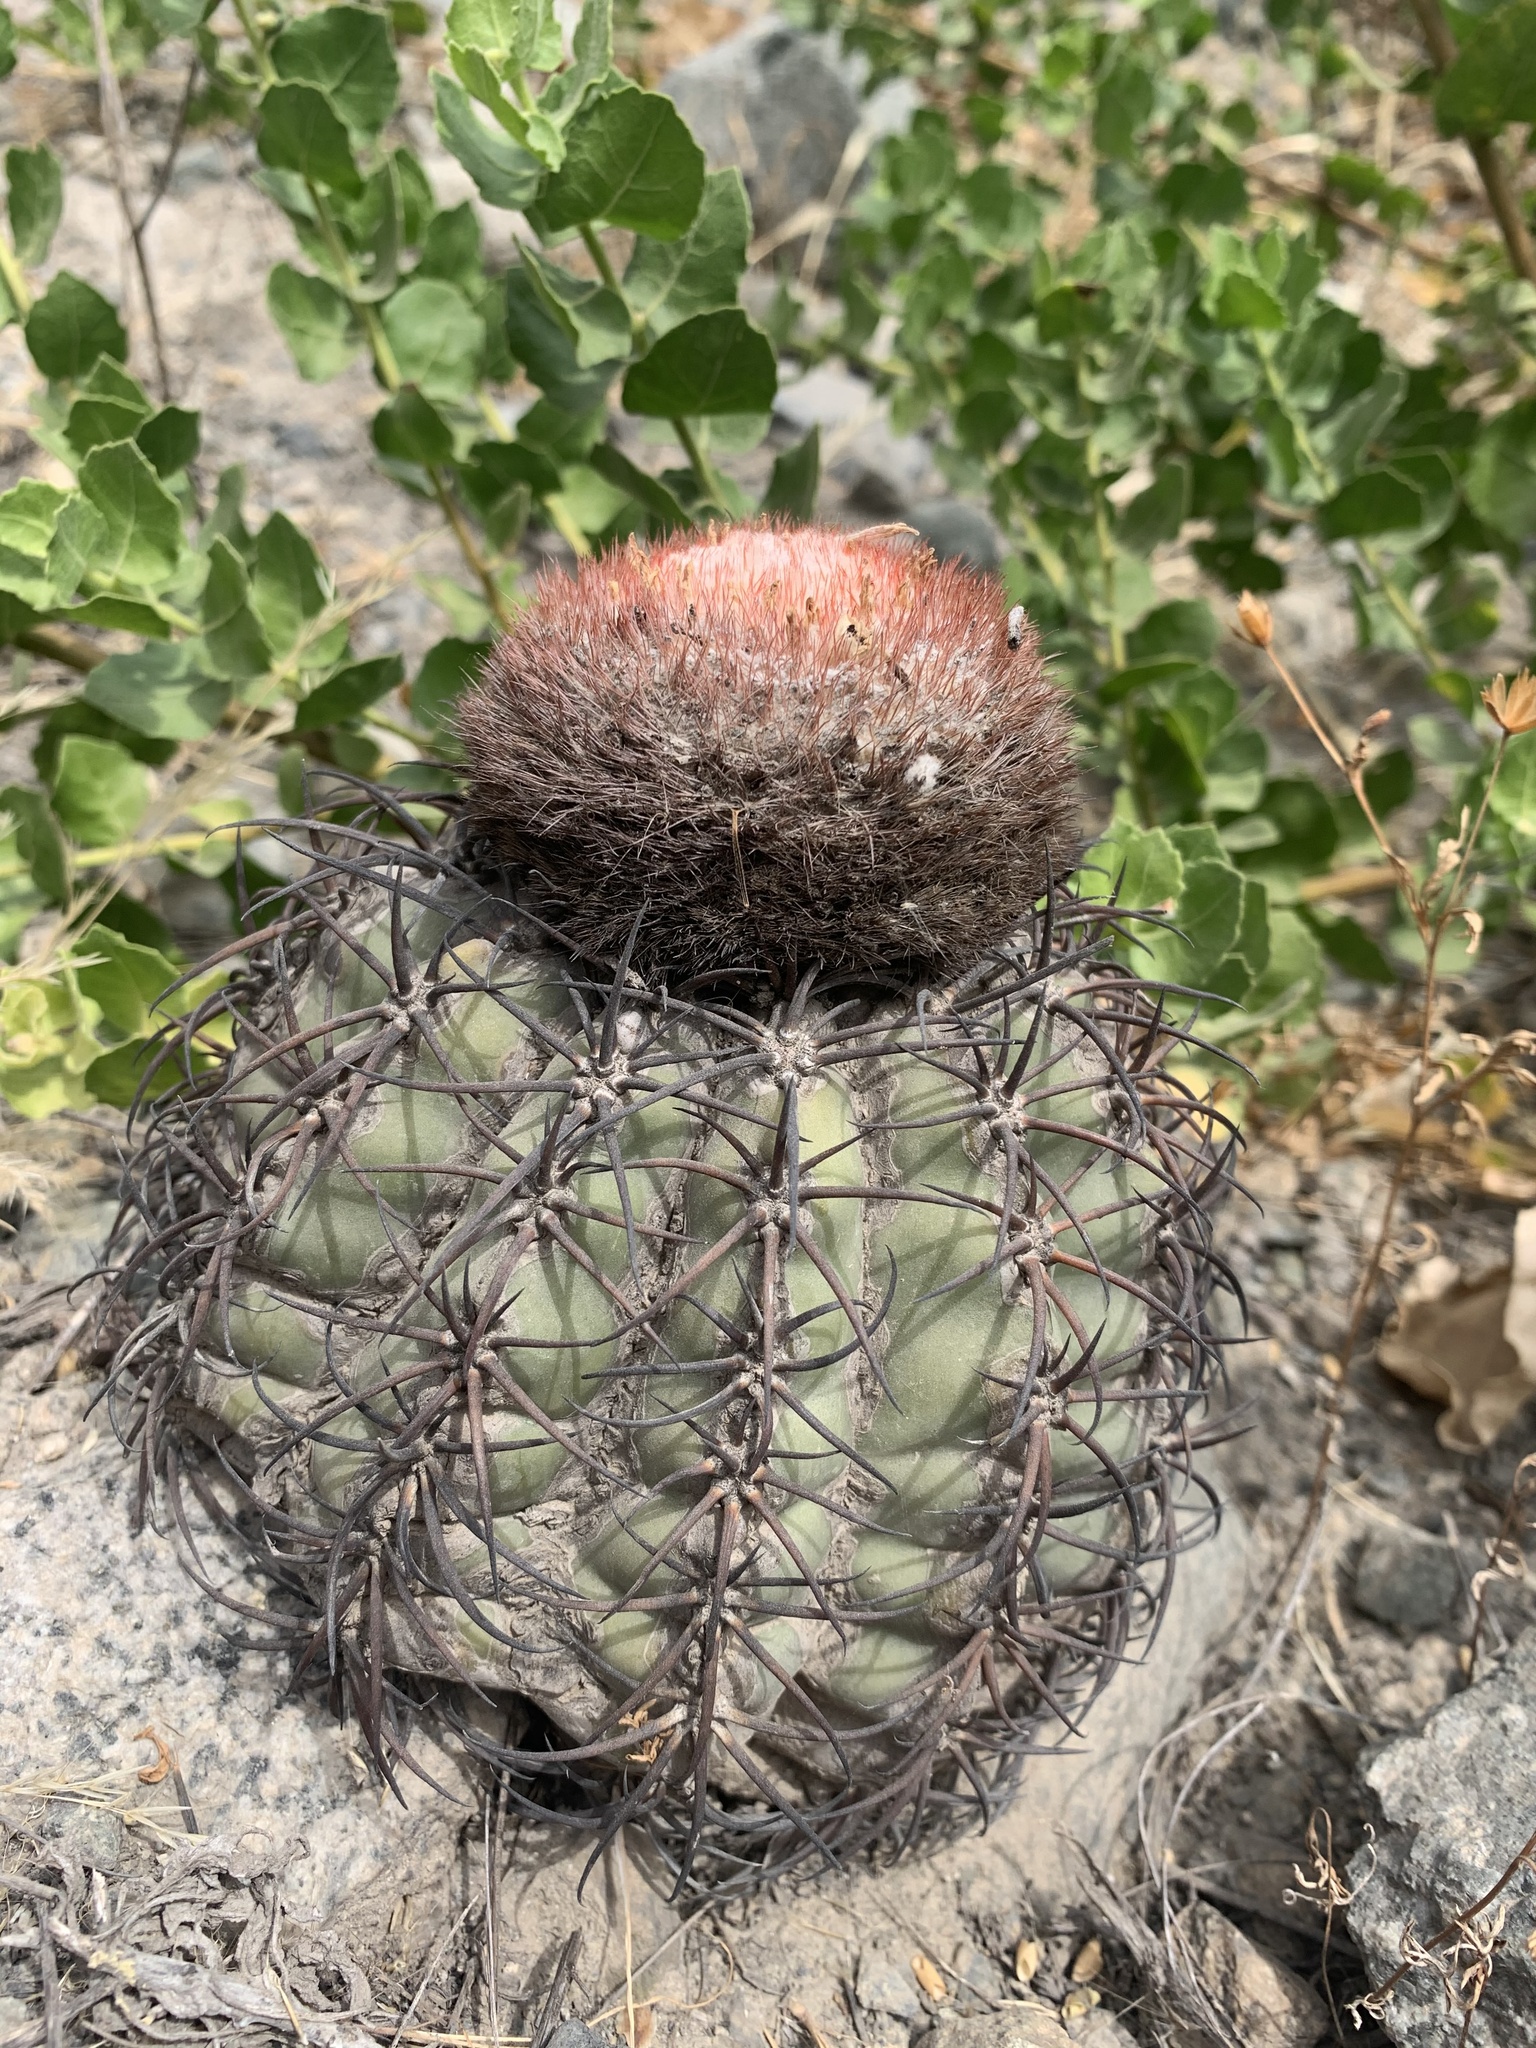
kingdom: Plantae
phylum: Tracheophyta
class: Magnoliopsida
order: Caryophyllales
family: Cactaceae
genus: Melocactus
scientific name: Melocactus peruvianus
